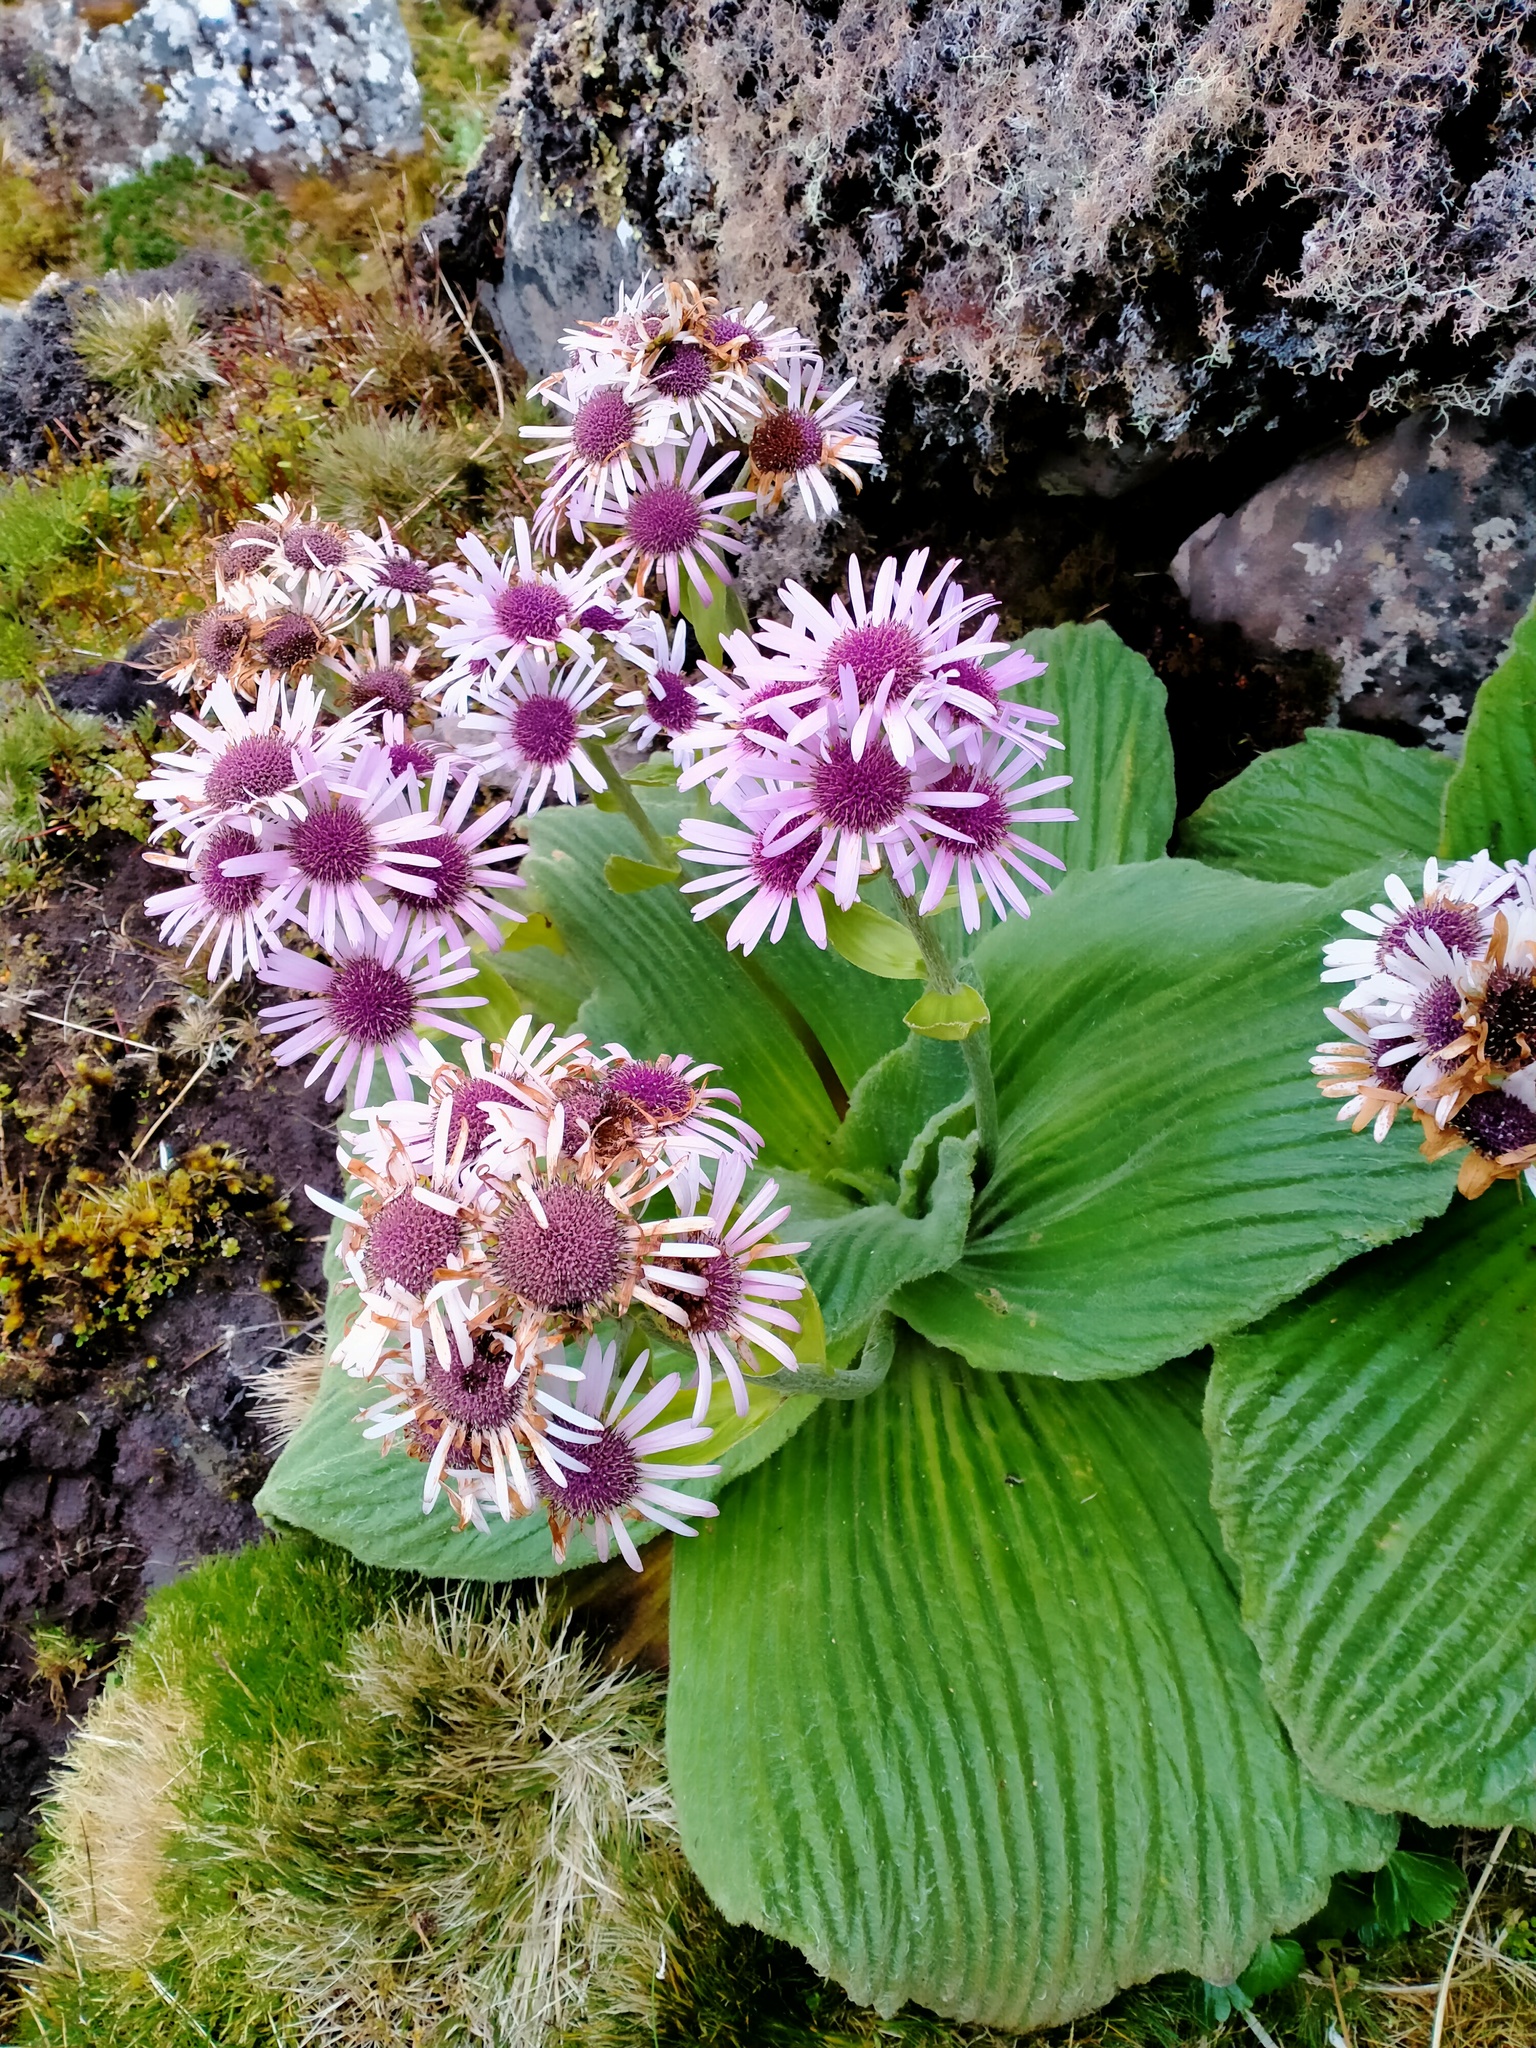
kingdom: Plantae
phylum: Tracheophyta
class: Magnoliopsida
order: Asterales
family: Asteraceae
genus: Pleurophyllum
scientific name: Pleurophyllum speciosum
